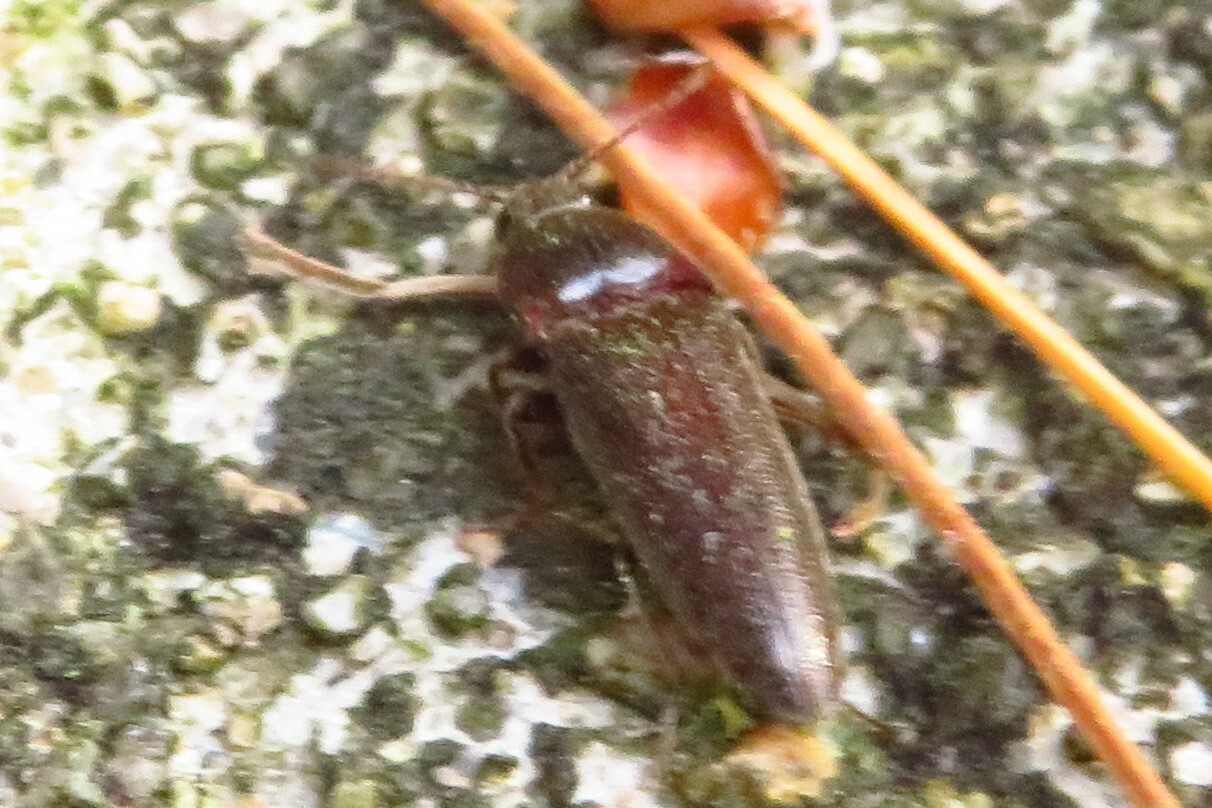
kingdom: Animalia
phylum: Arthropoda
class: Insecta
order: Coleoptera
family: Elateridae
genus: Melanotus
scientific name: Melanotus
